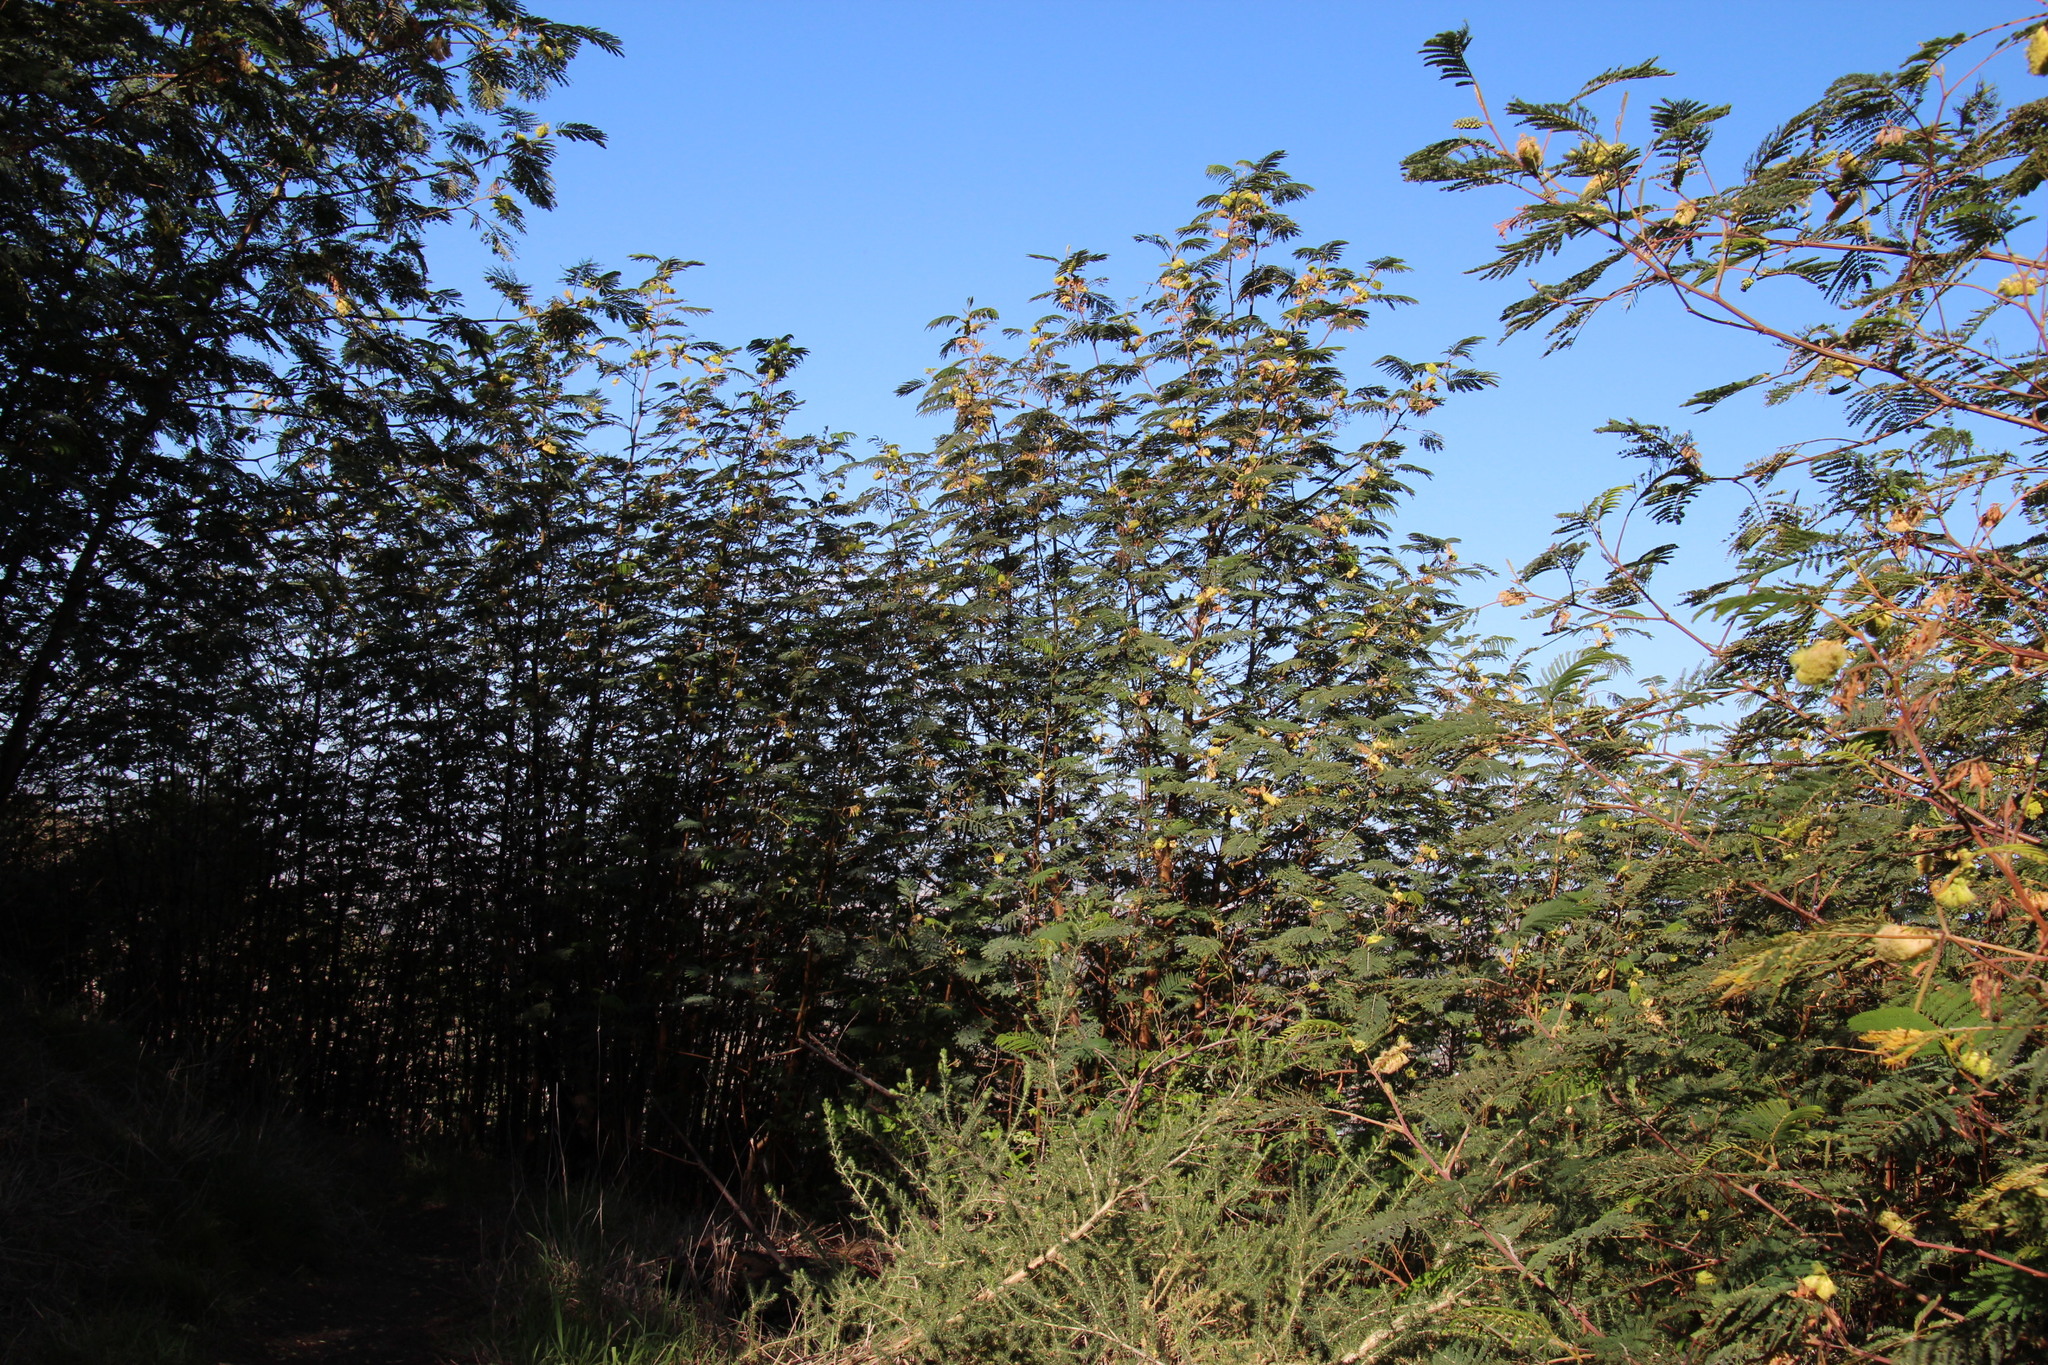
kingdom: Plantae
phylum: Tracheophyta
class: Magnoliopsida
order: Fabales
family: Fabaceae
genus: Paraserianthes
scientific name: Paraserianthes lophantha
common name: Plume albizia
